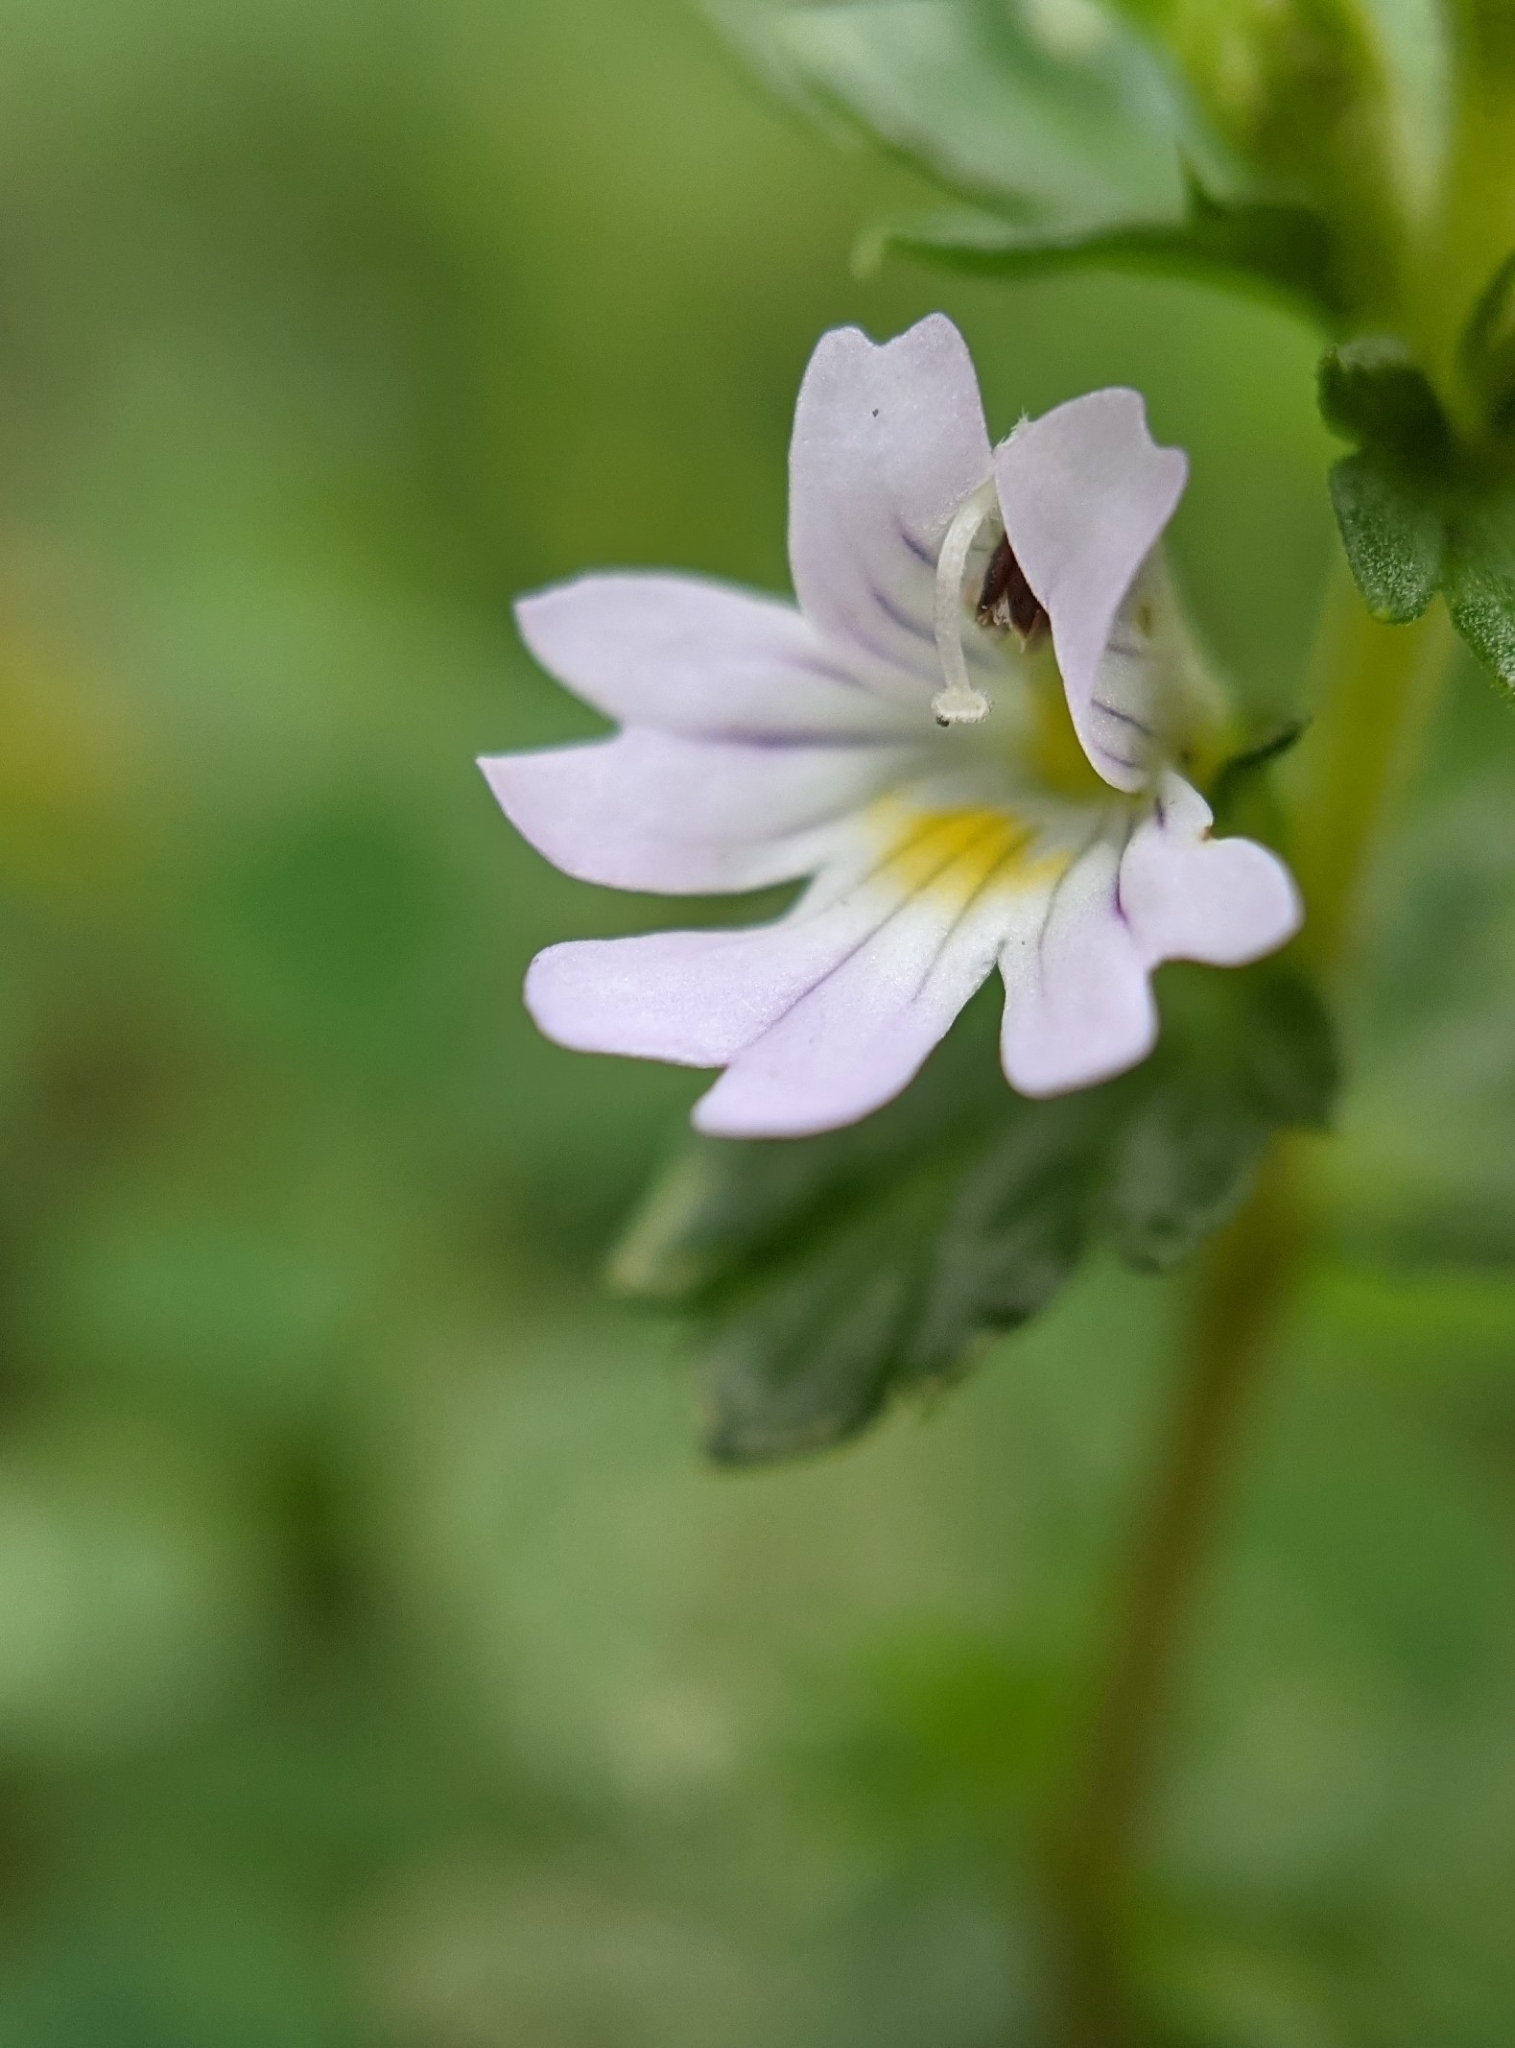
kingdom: Plantae
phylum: Tracheophyta
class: Magnoliopsida
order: Lamiales
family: Orobanchaceae
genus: Euphrasia
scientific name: Euphrasia nemorosa
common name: Common eyebright
